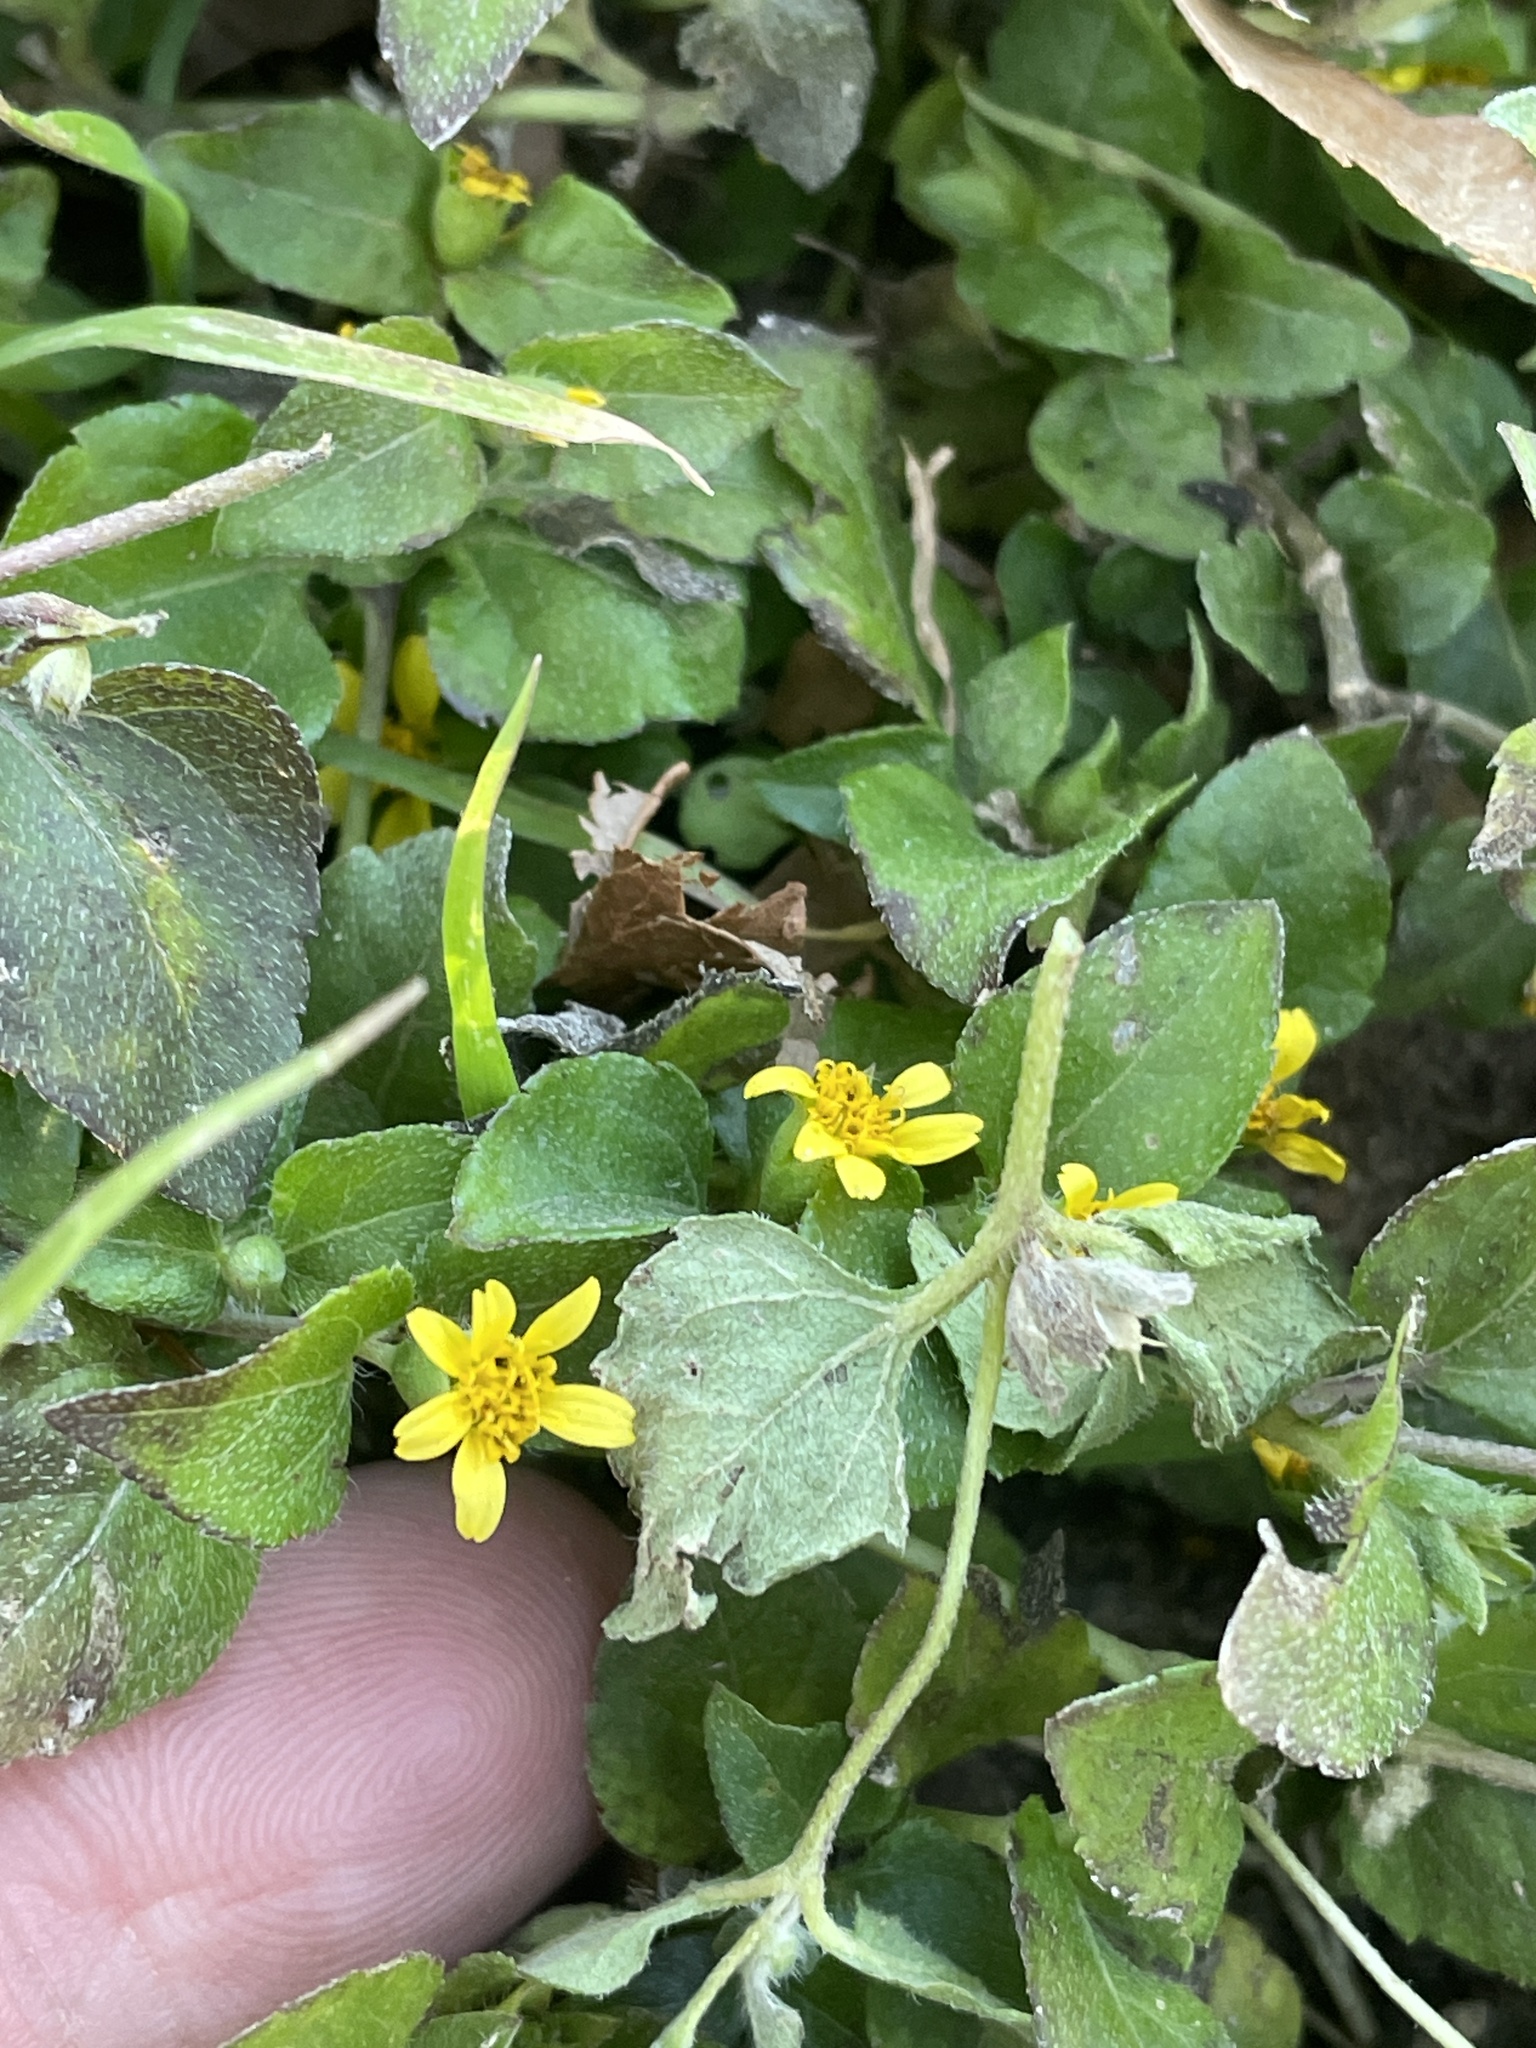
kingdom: Plantae
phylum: Tracheophyta
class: Magnoliopsida
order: Asterales
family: Asteraceae
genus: Calyptocarpus
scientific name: Calyptocarpus vialis
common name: Straggler daisy
